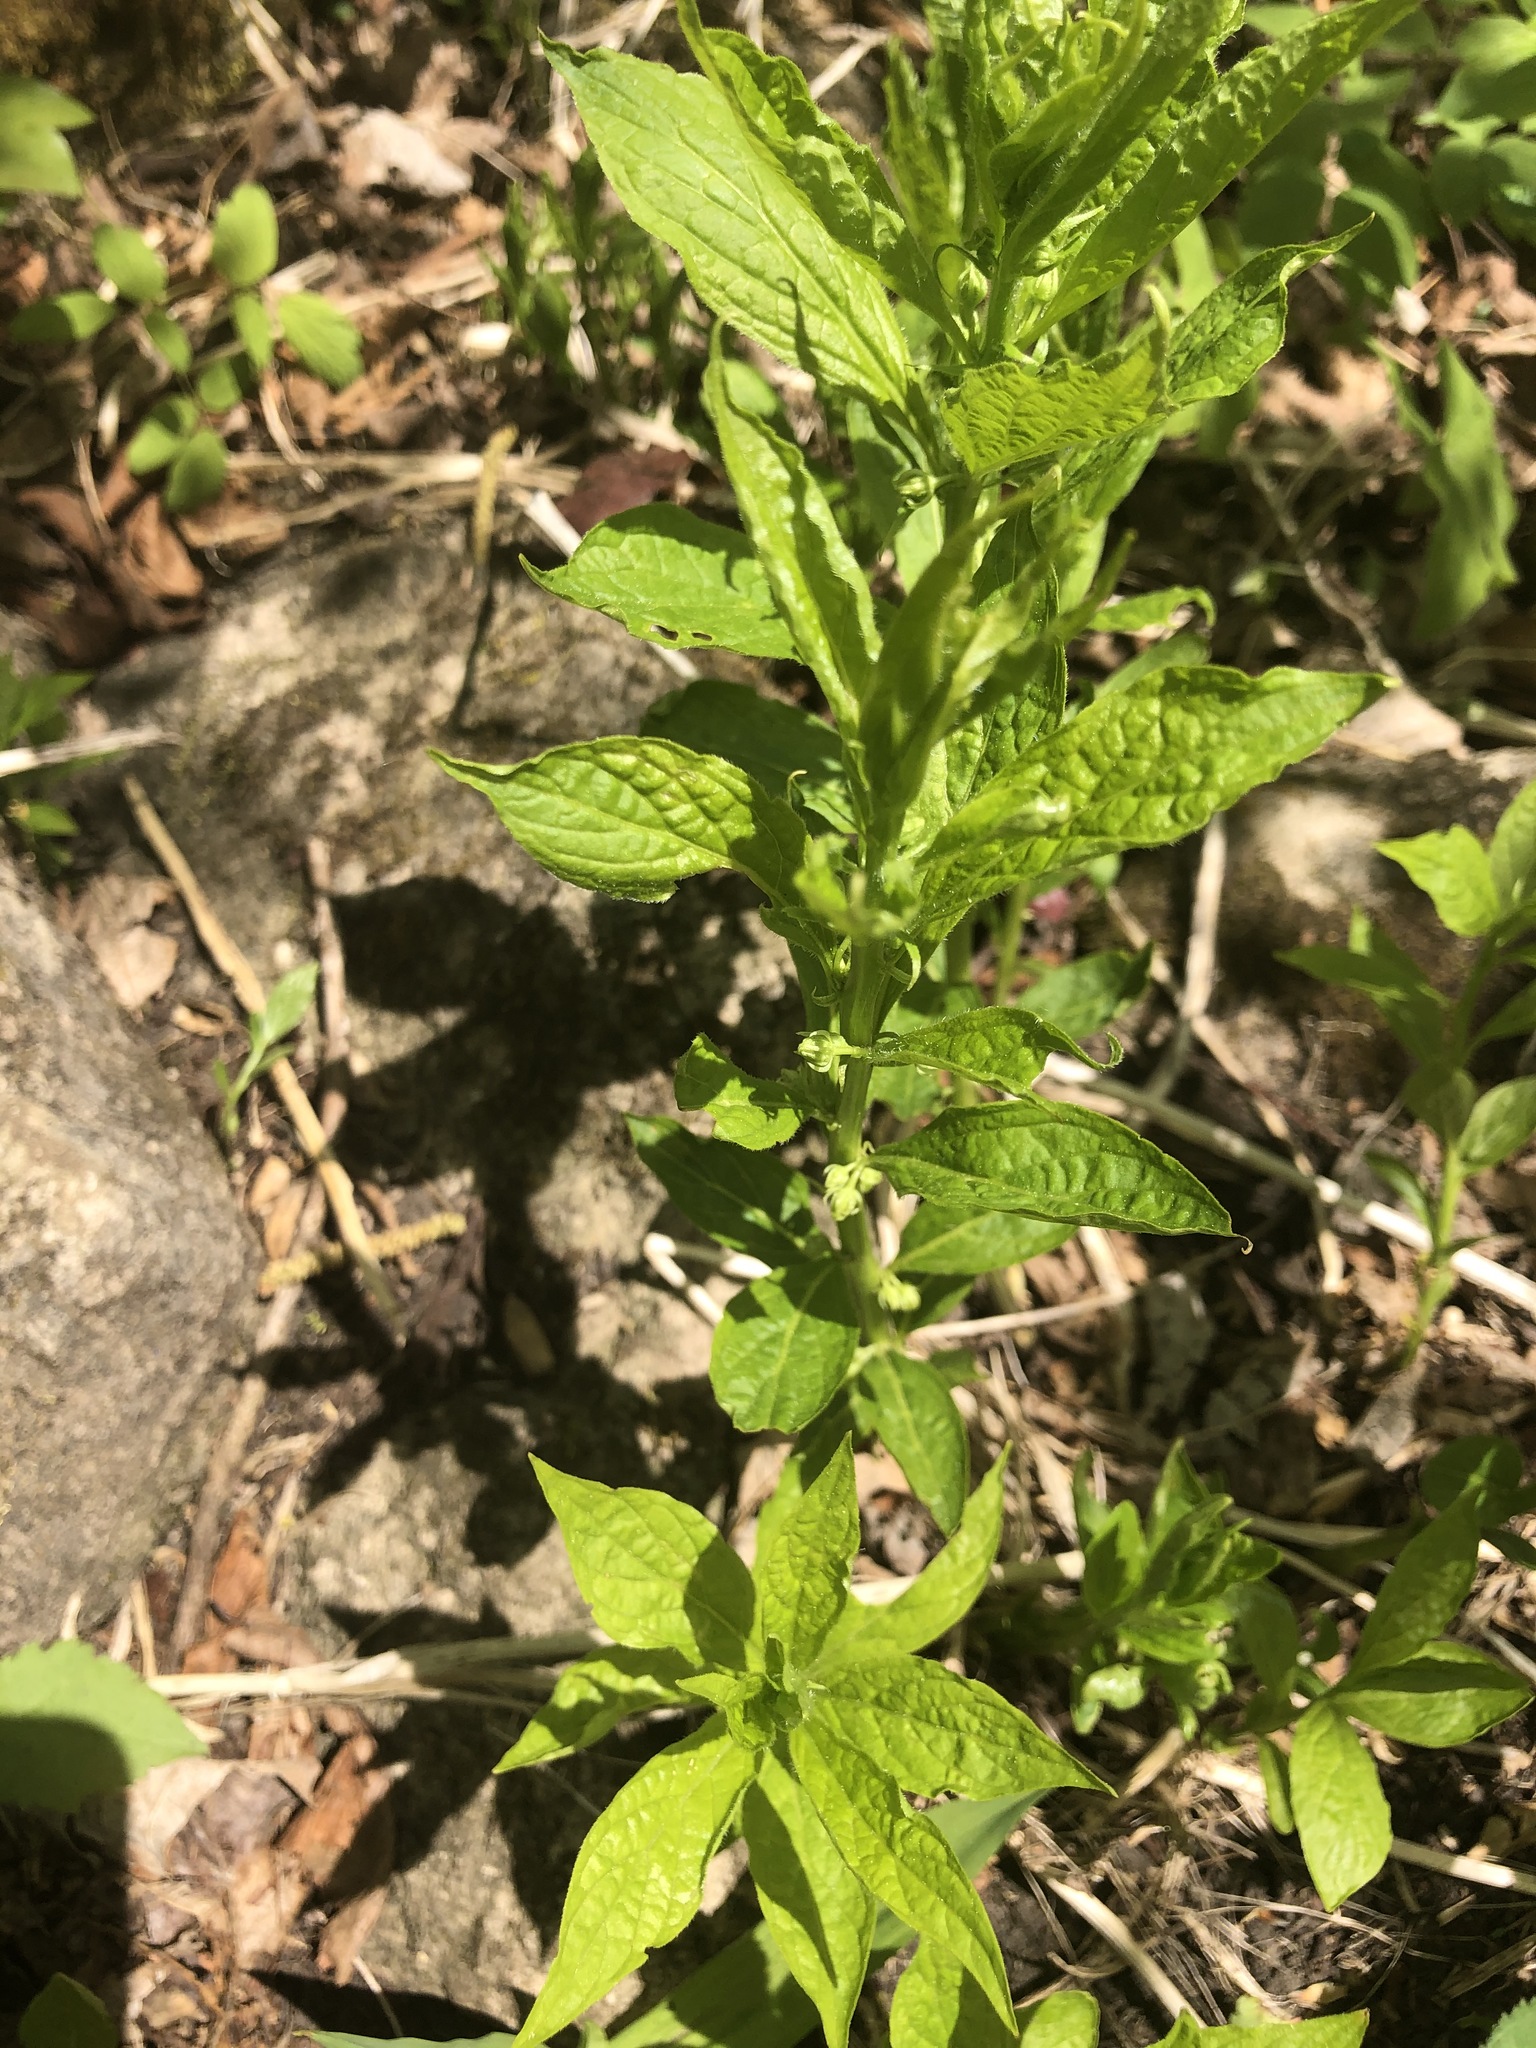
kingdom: Plantae
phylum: Tracheophyta
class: Magnoliopsida
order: Malpighiales
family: Violaceae
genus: Cubelium
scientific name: Cubelium concolor
